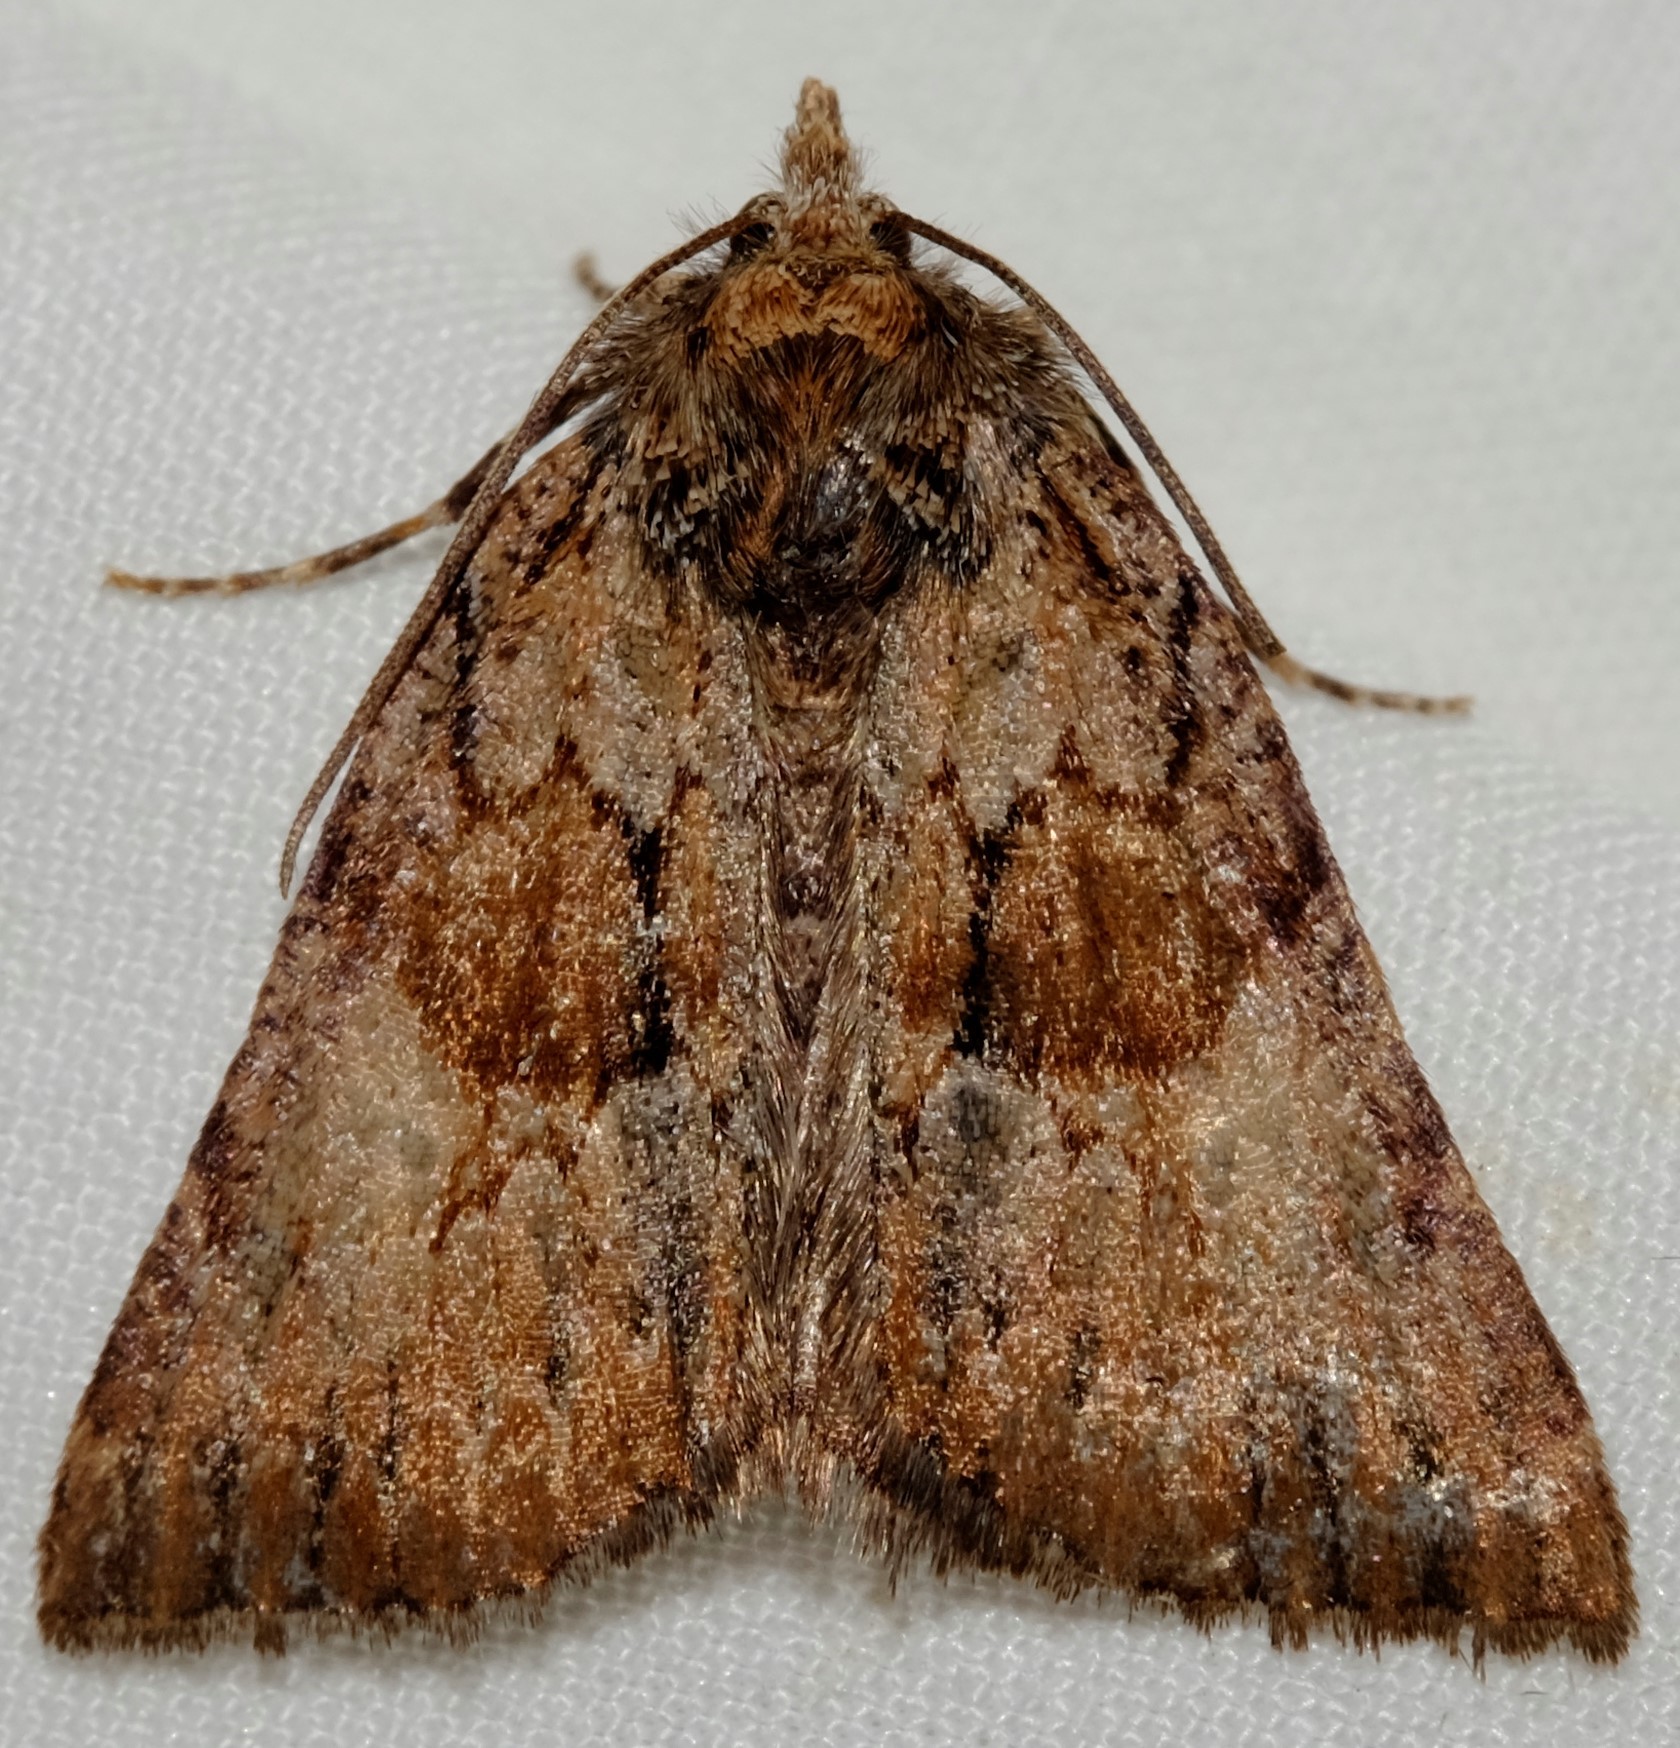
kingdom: Animalia
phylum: Arthropoda
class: Insecta
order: Lepidoptera
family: Geometridae
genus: Smyriodes
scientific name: Smyriodes
